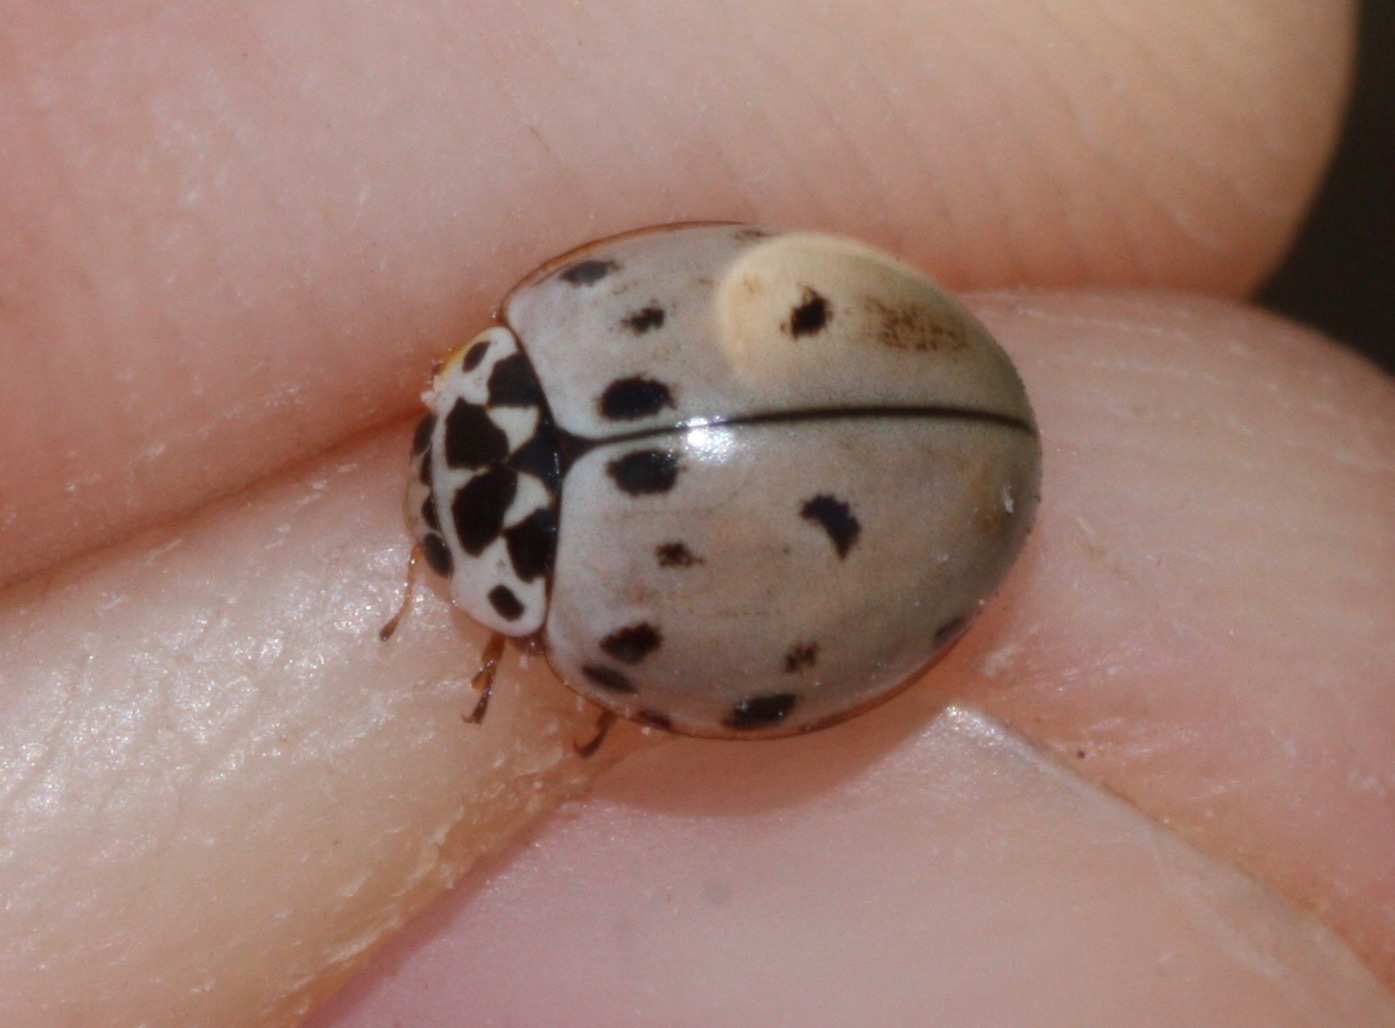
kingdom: Animalia
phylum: Arthropoda
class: Insecta
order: Coleoptera
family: Coccinellidae
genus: Olla
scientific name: Olla v-nigrum
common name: Ashy gray lady beetle
